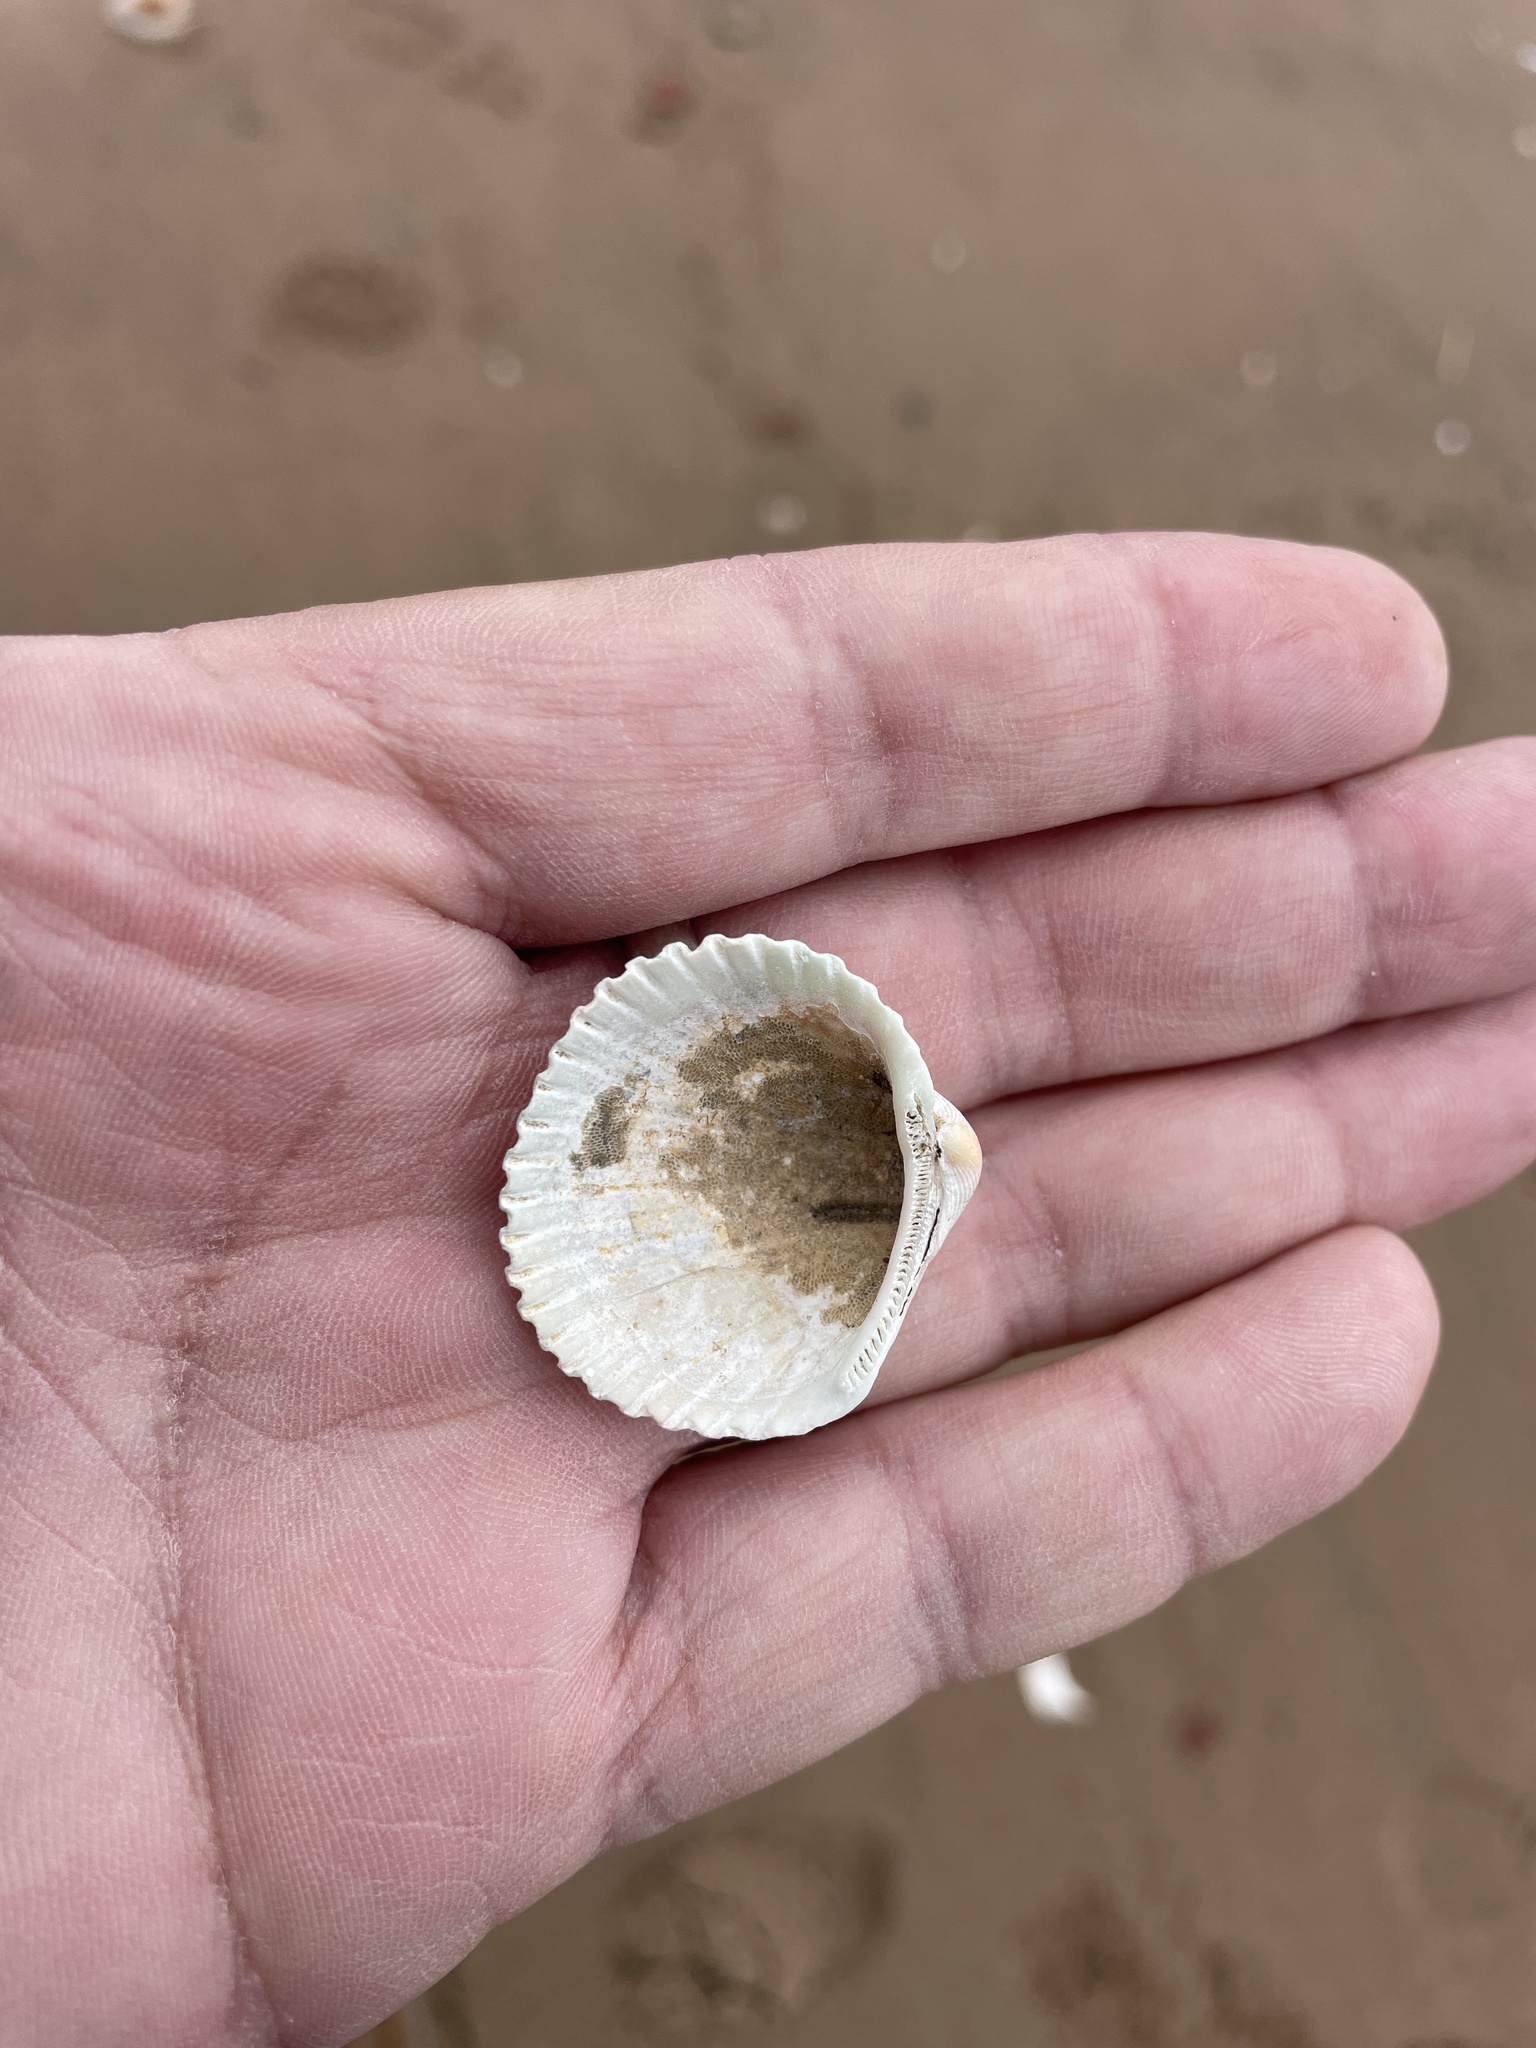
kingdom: Animalia
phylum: Mollusca
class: Bivalvia
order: Arcida
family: Arcidae
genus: Lunarca
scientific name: Lunarca ovalis
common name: Blood ark
